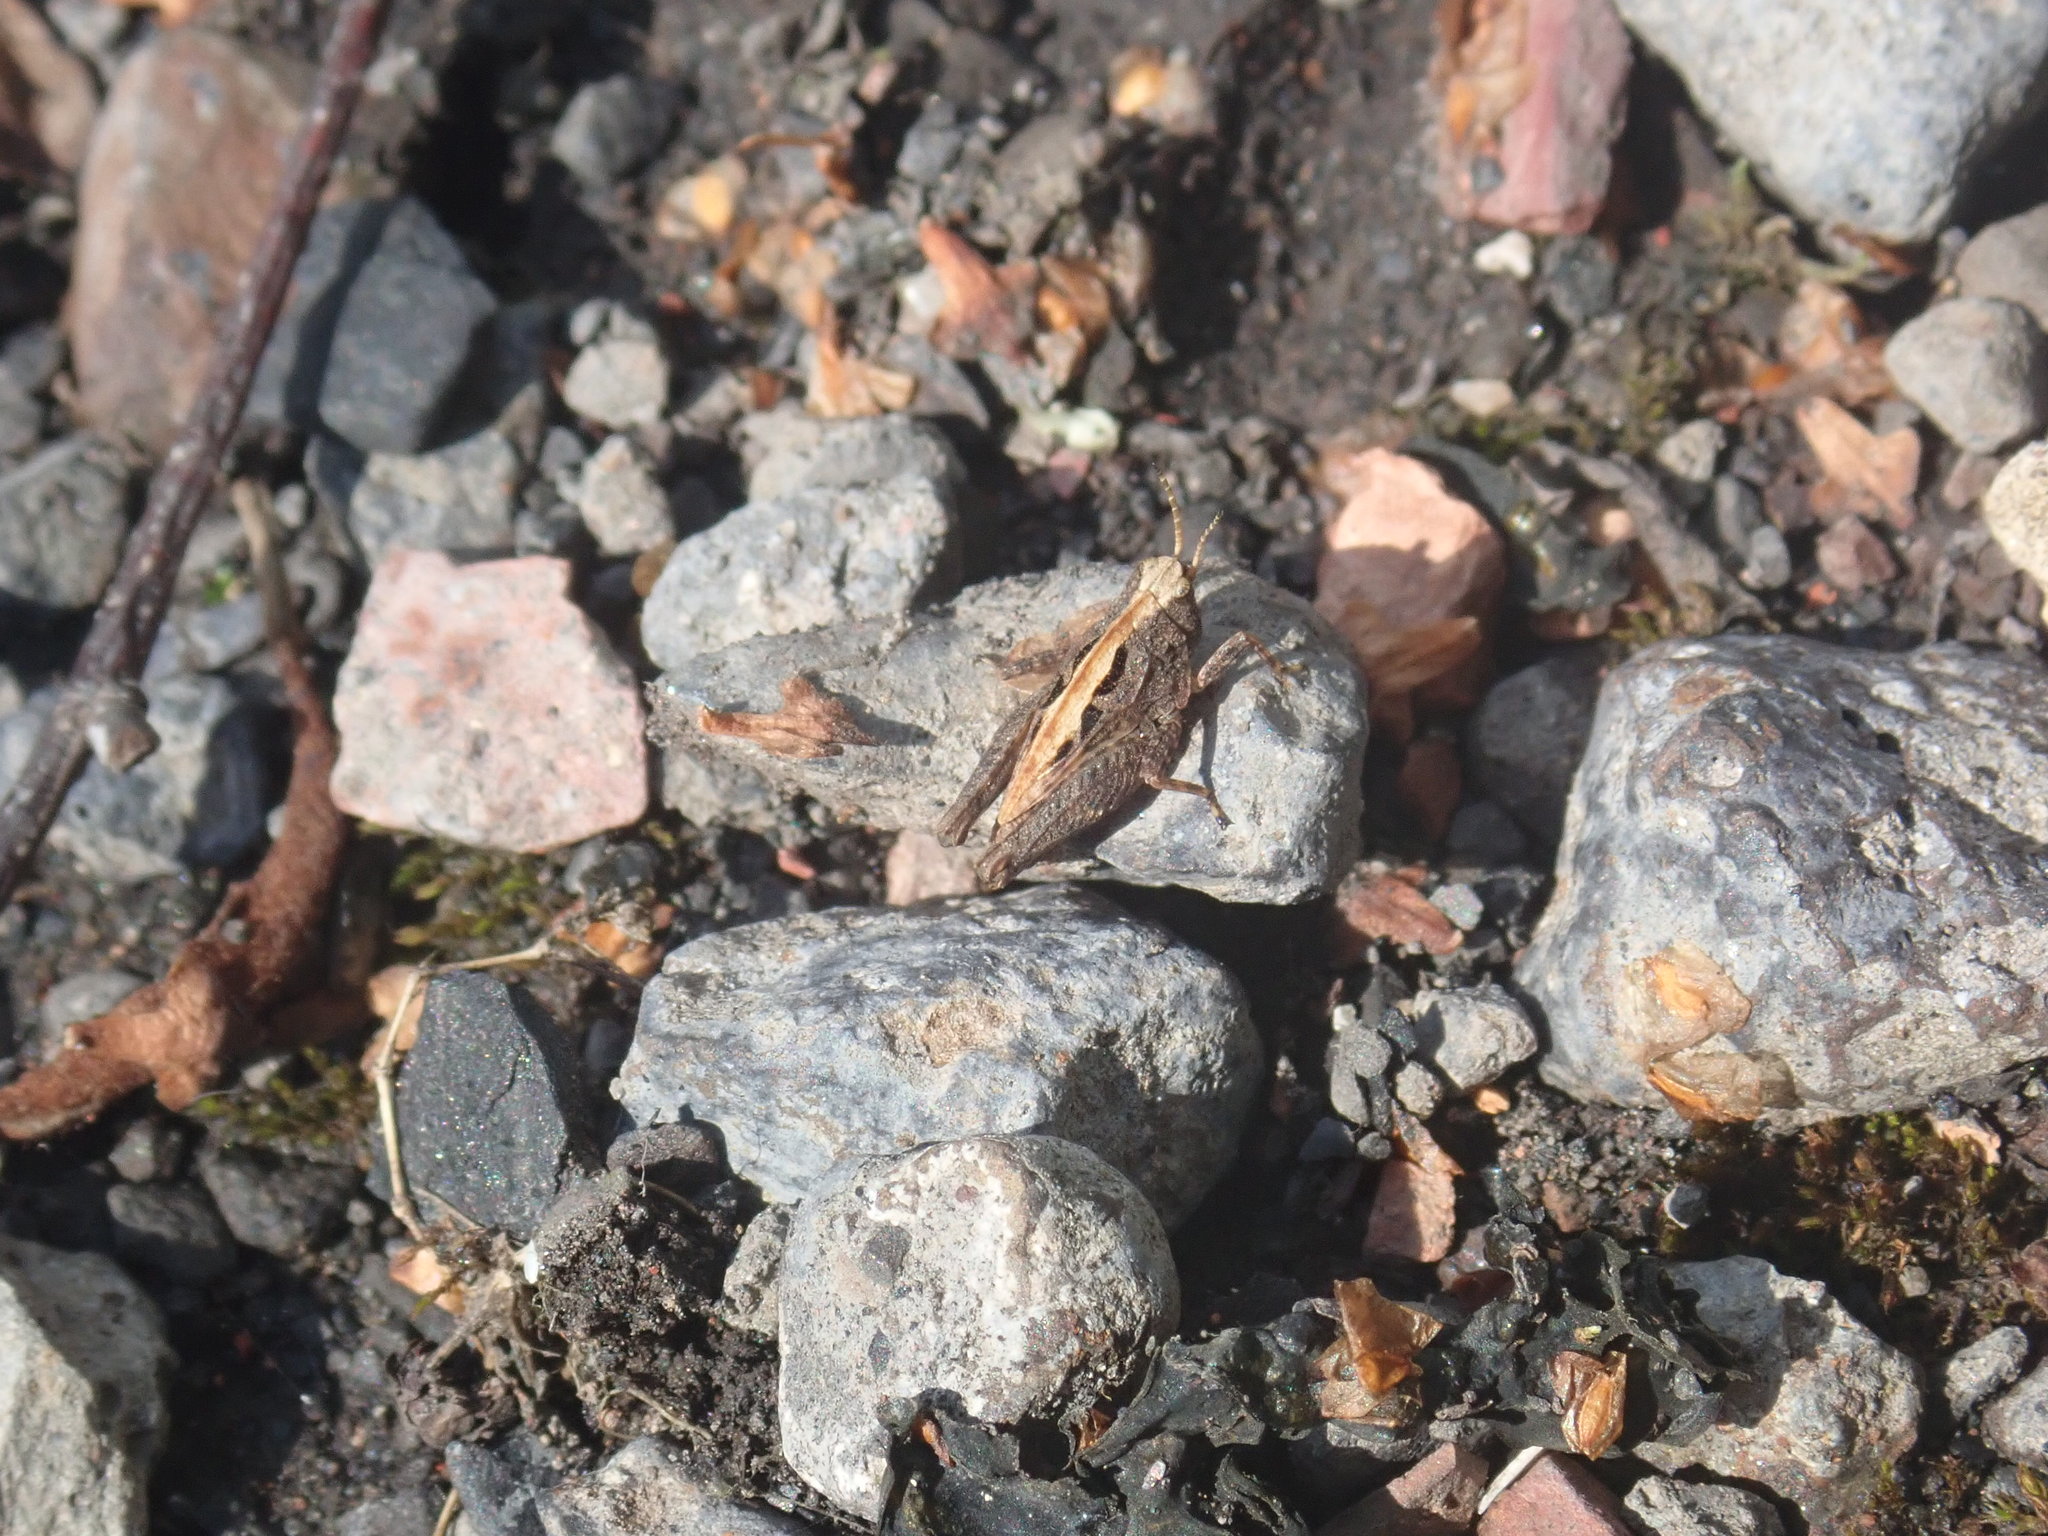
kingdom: Animalia
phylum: Arthropoda
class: Insecta
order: Orthoptera
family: Tetrigidae
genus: Tetrix
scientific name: Tetrix
